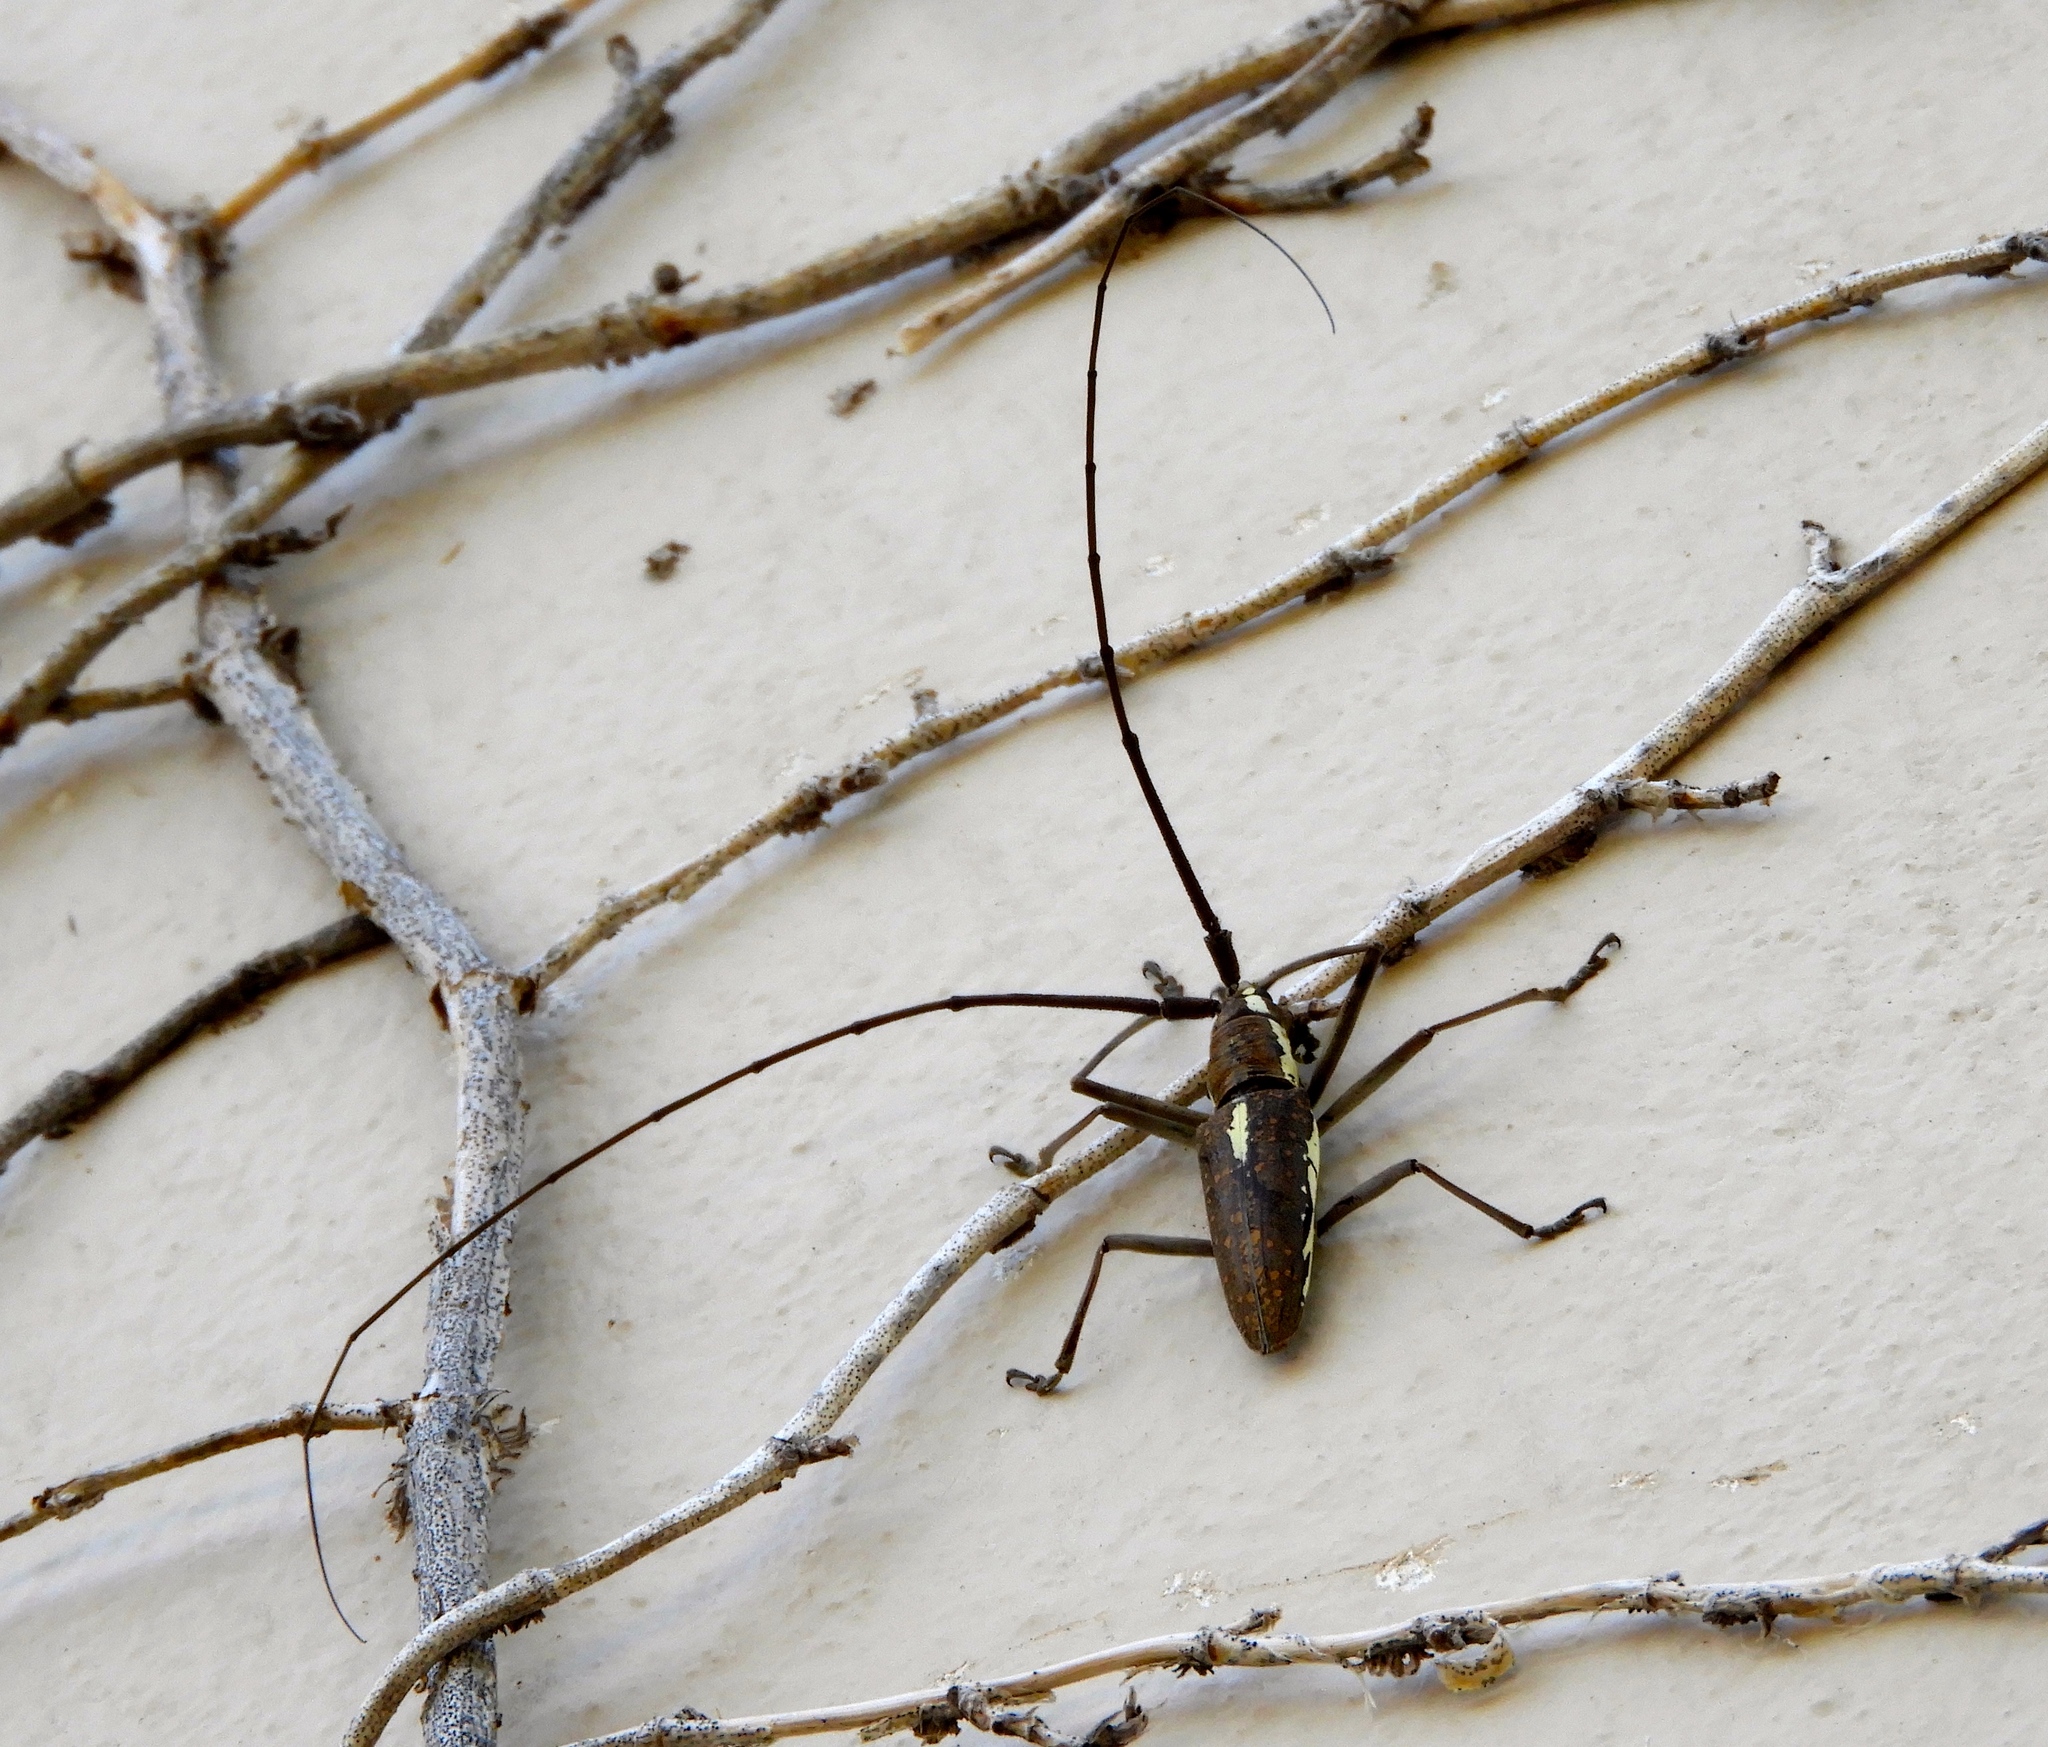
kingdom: Animalia
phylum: Arthropoda
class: Insecta
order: Coleoptera
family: Cerambycidae
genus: Neoptychodes
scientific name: Neoptychodes trilineatus
